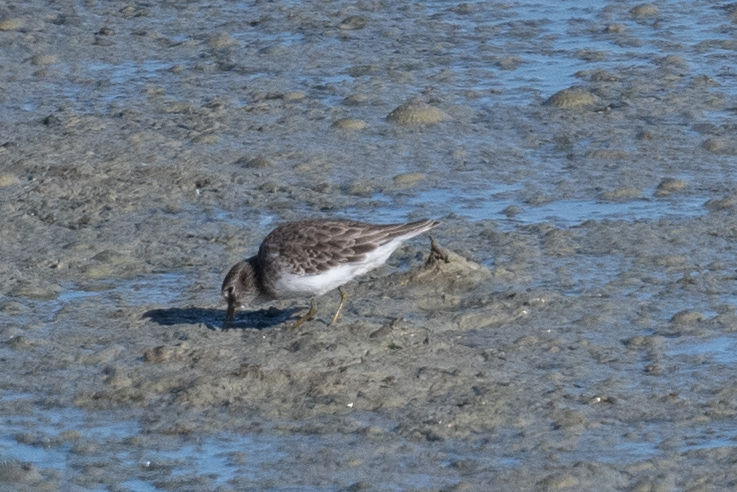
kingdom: Animalia
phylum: Chordata
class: Aves
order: Charadriiformes
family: Scolopacidae
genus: Calidris
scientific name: Calidris minutilla
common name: Least sandpiper
